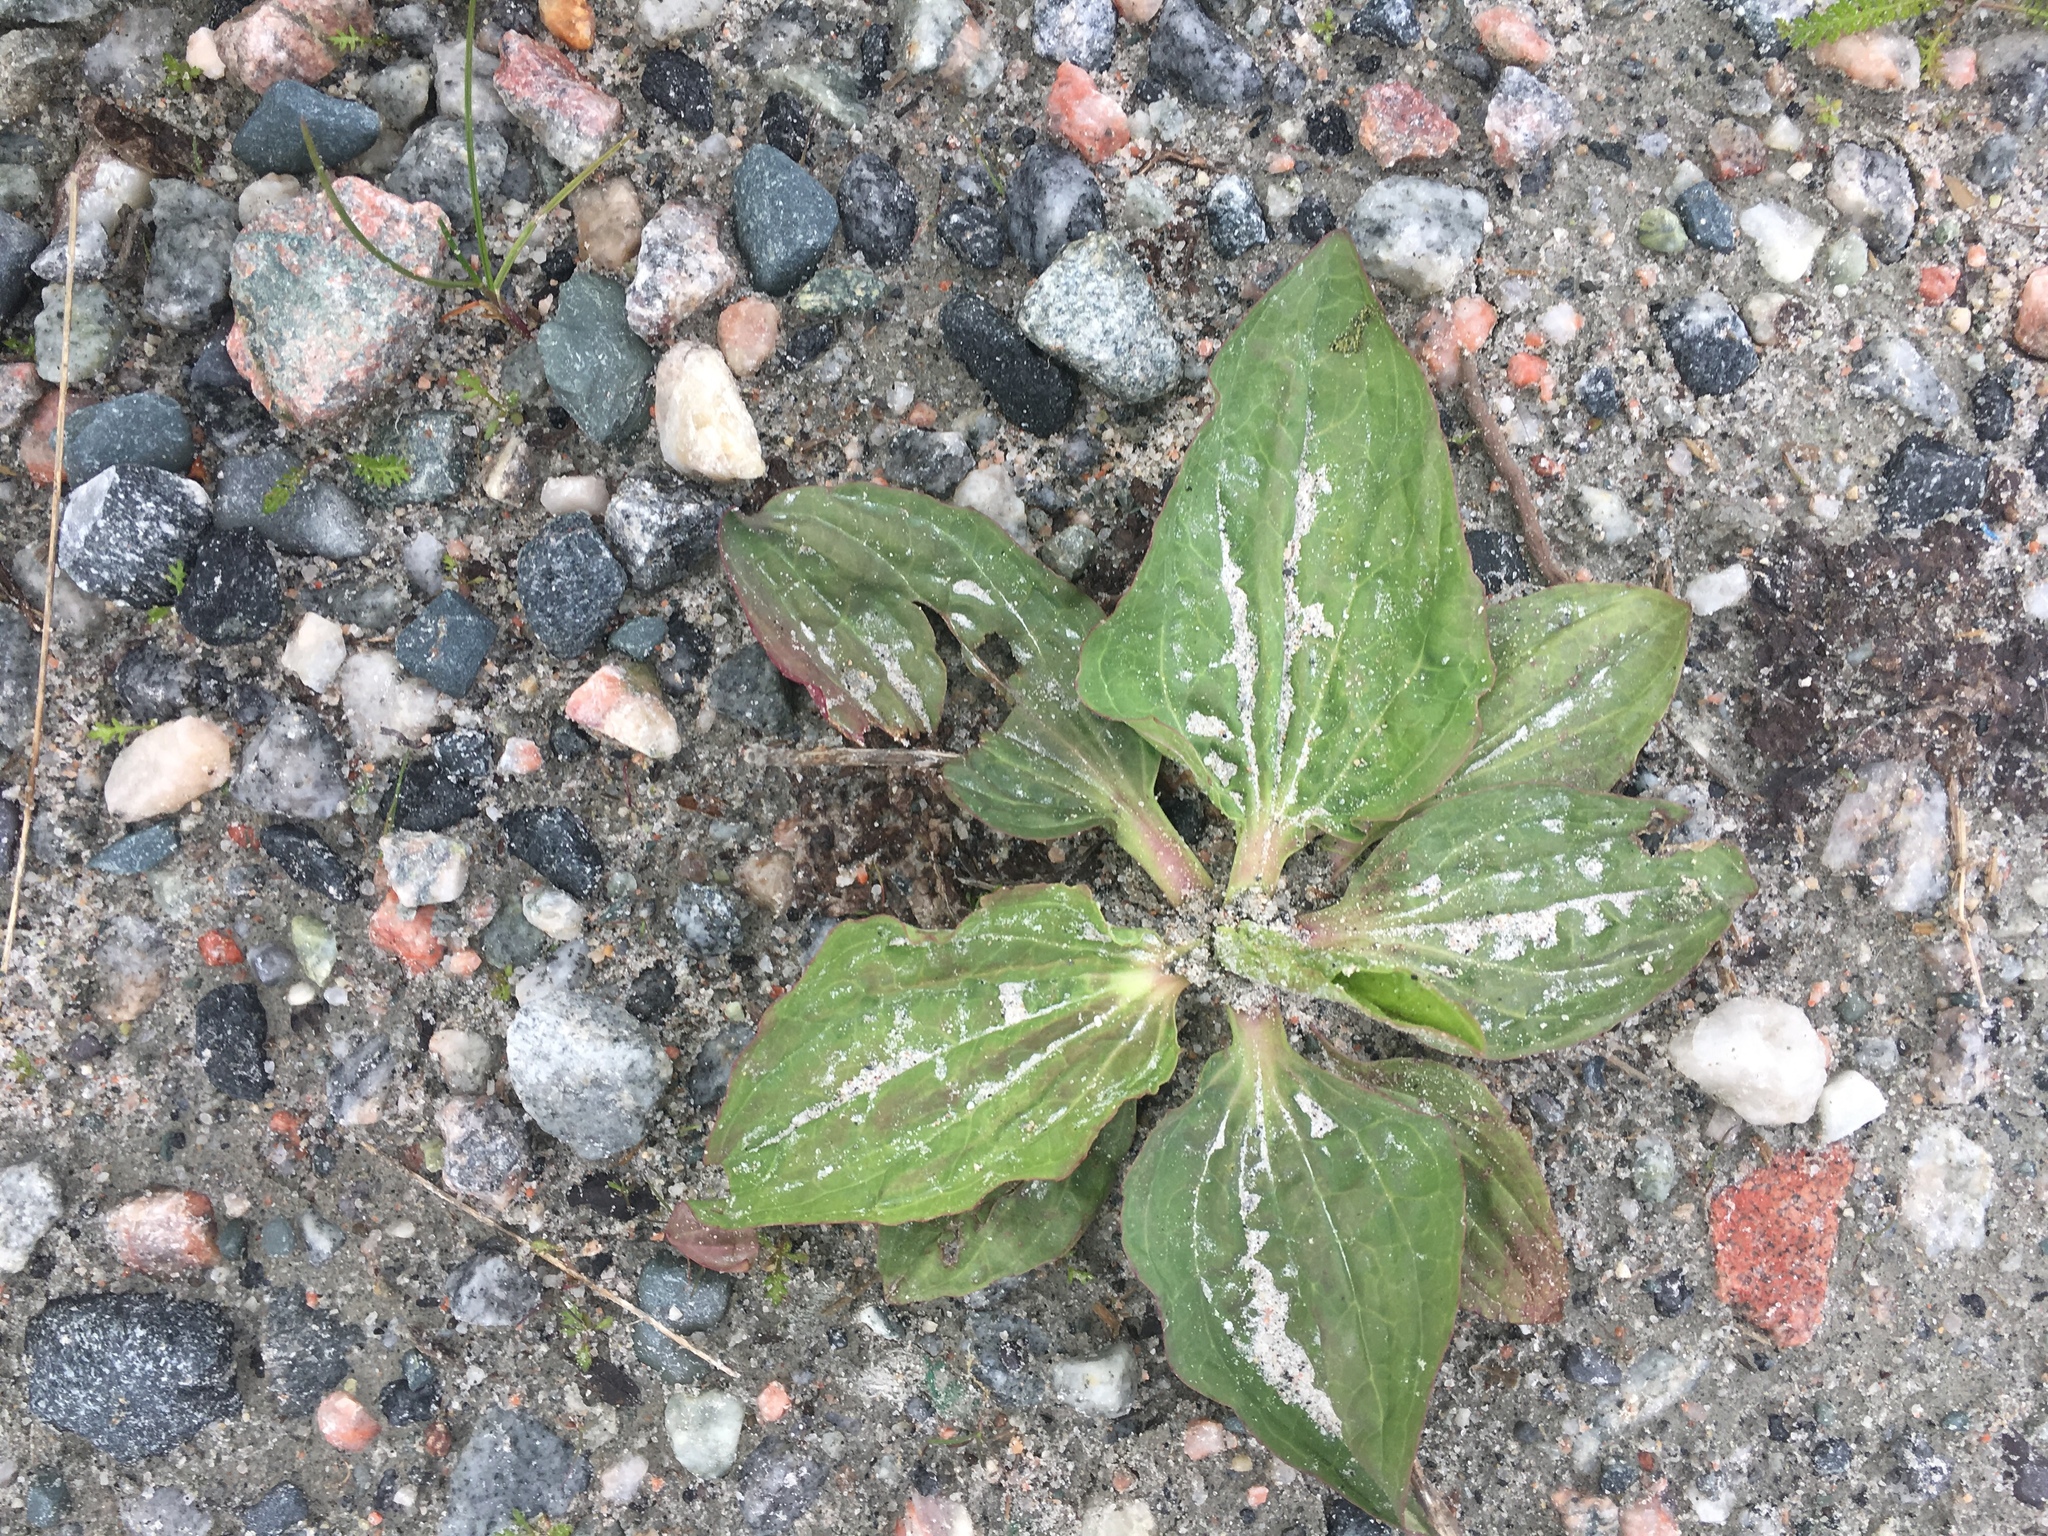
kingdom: Plantae
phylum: Tracheophyta
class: Magnoliopsida
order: Lamiales
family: Plantaginaceae
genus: Plantago
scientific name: Plantago major
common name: Common plantain
